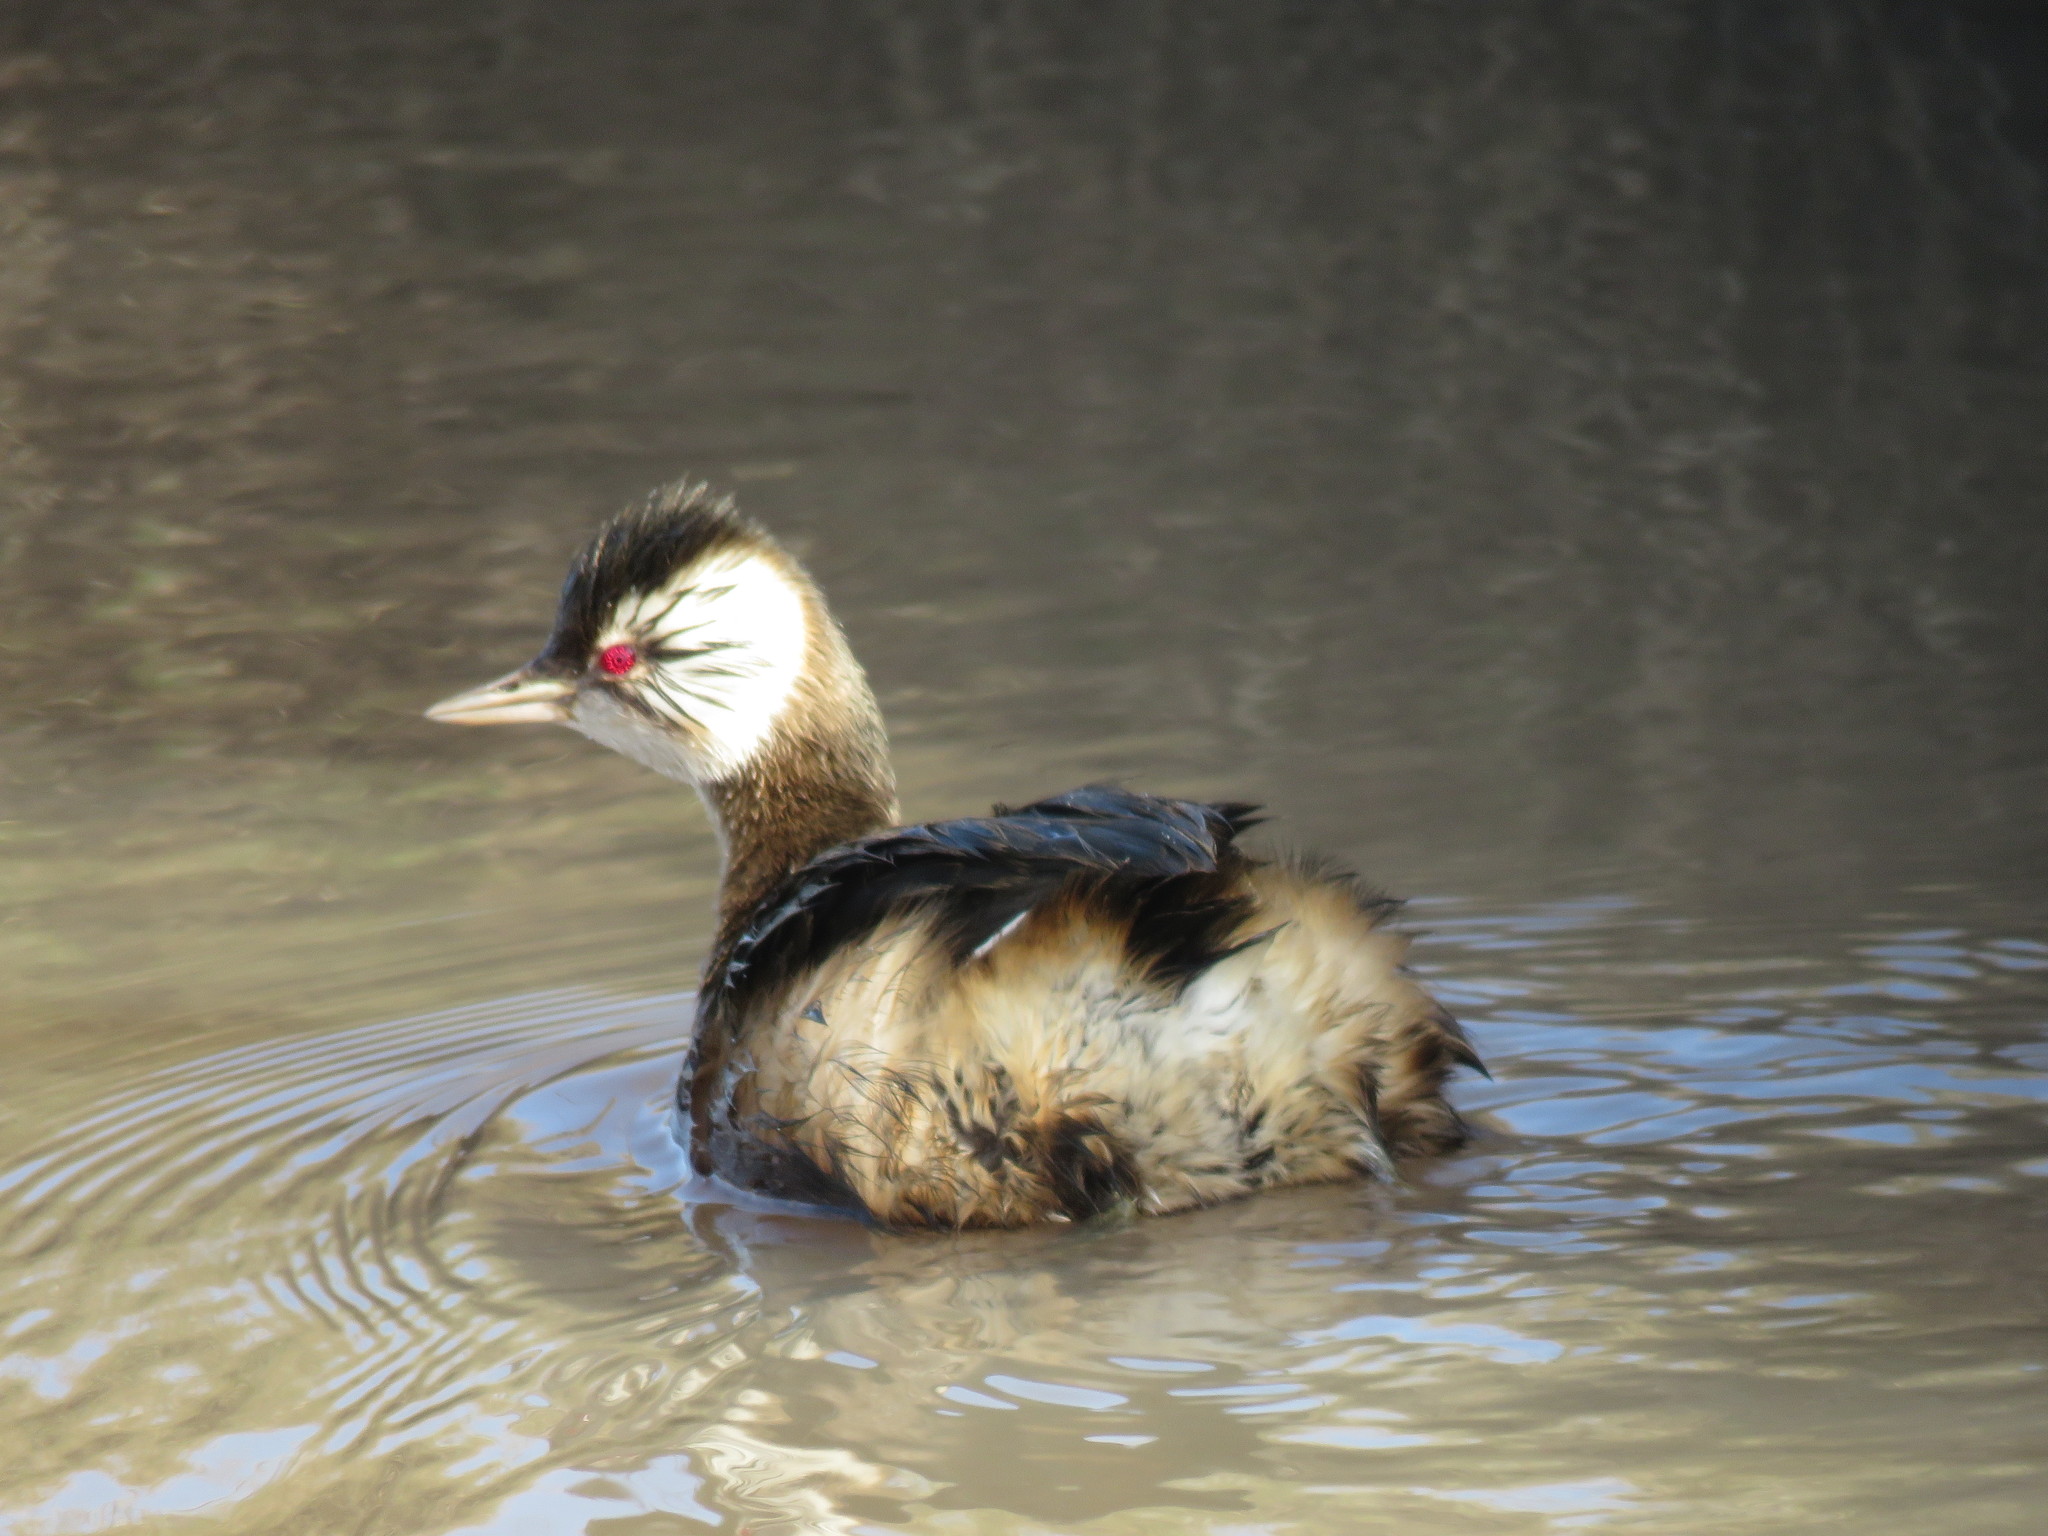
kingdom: Animalia
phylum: Chordata
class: Aves
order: Podicipediformes
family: Podicipedidae
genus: Rollandia
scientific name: Rollandia rolland
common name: White-tufted grebe
